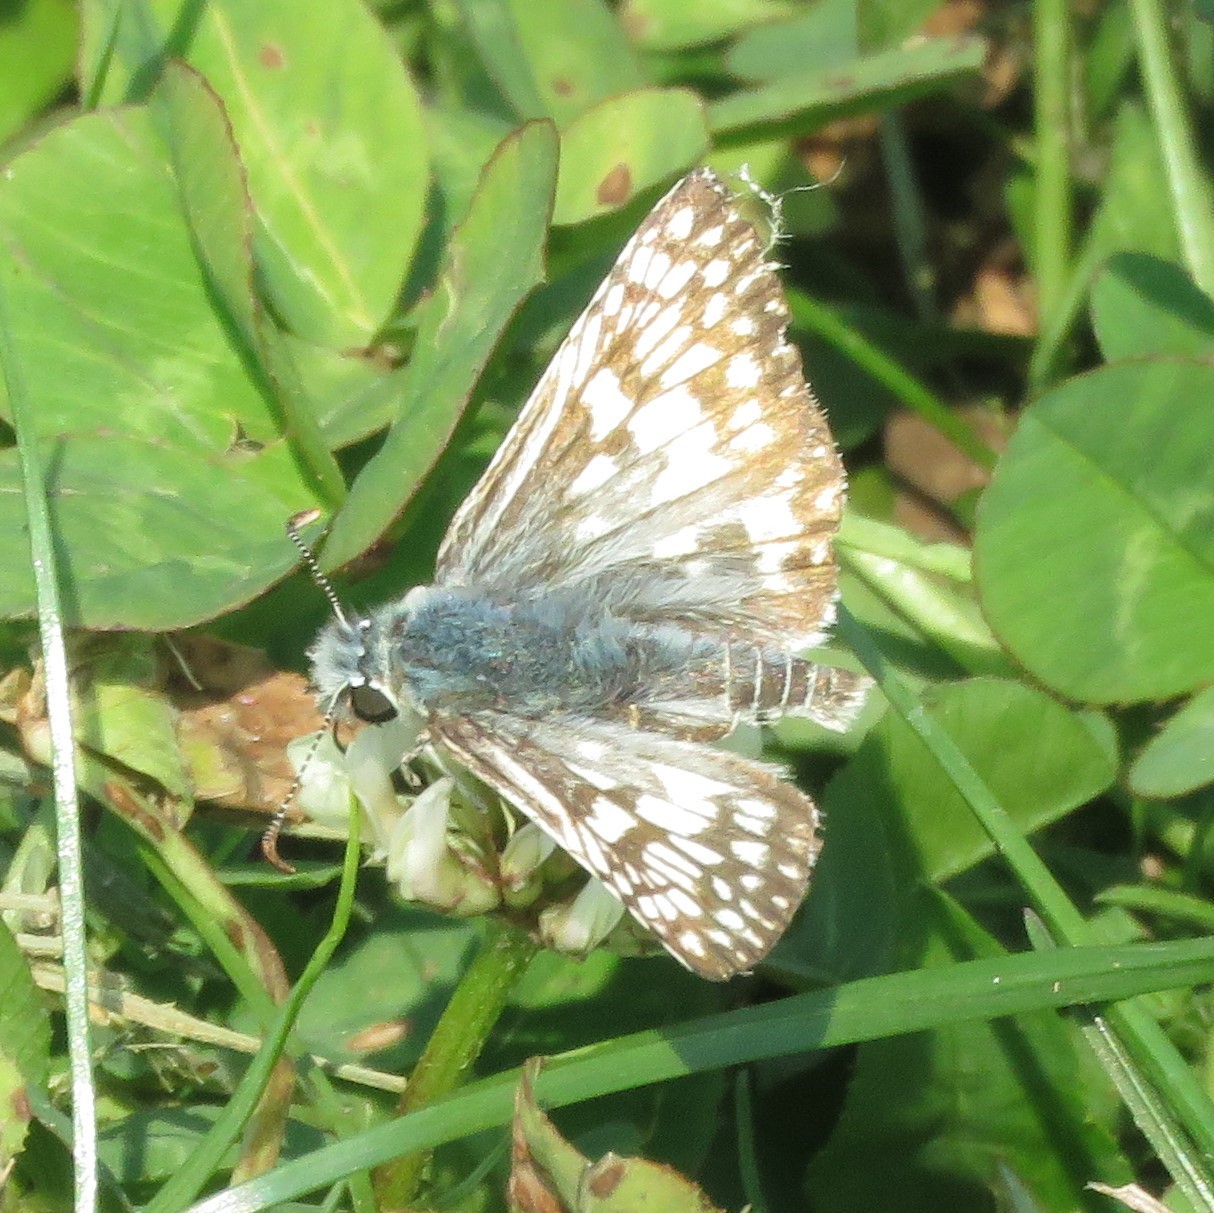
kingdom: Animalia
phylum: Arthropoda
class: Insecta
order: Lepidoptera
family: Hesperiidae
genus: Burnsius
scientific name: Burnsius communis
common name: Common checkered-skipper
